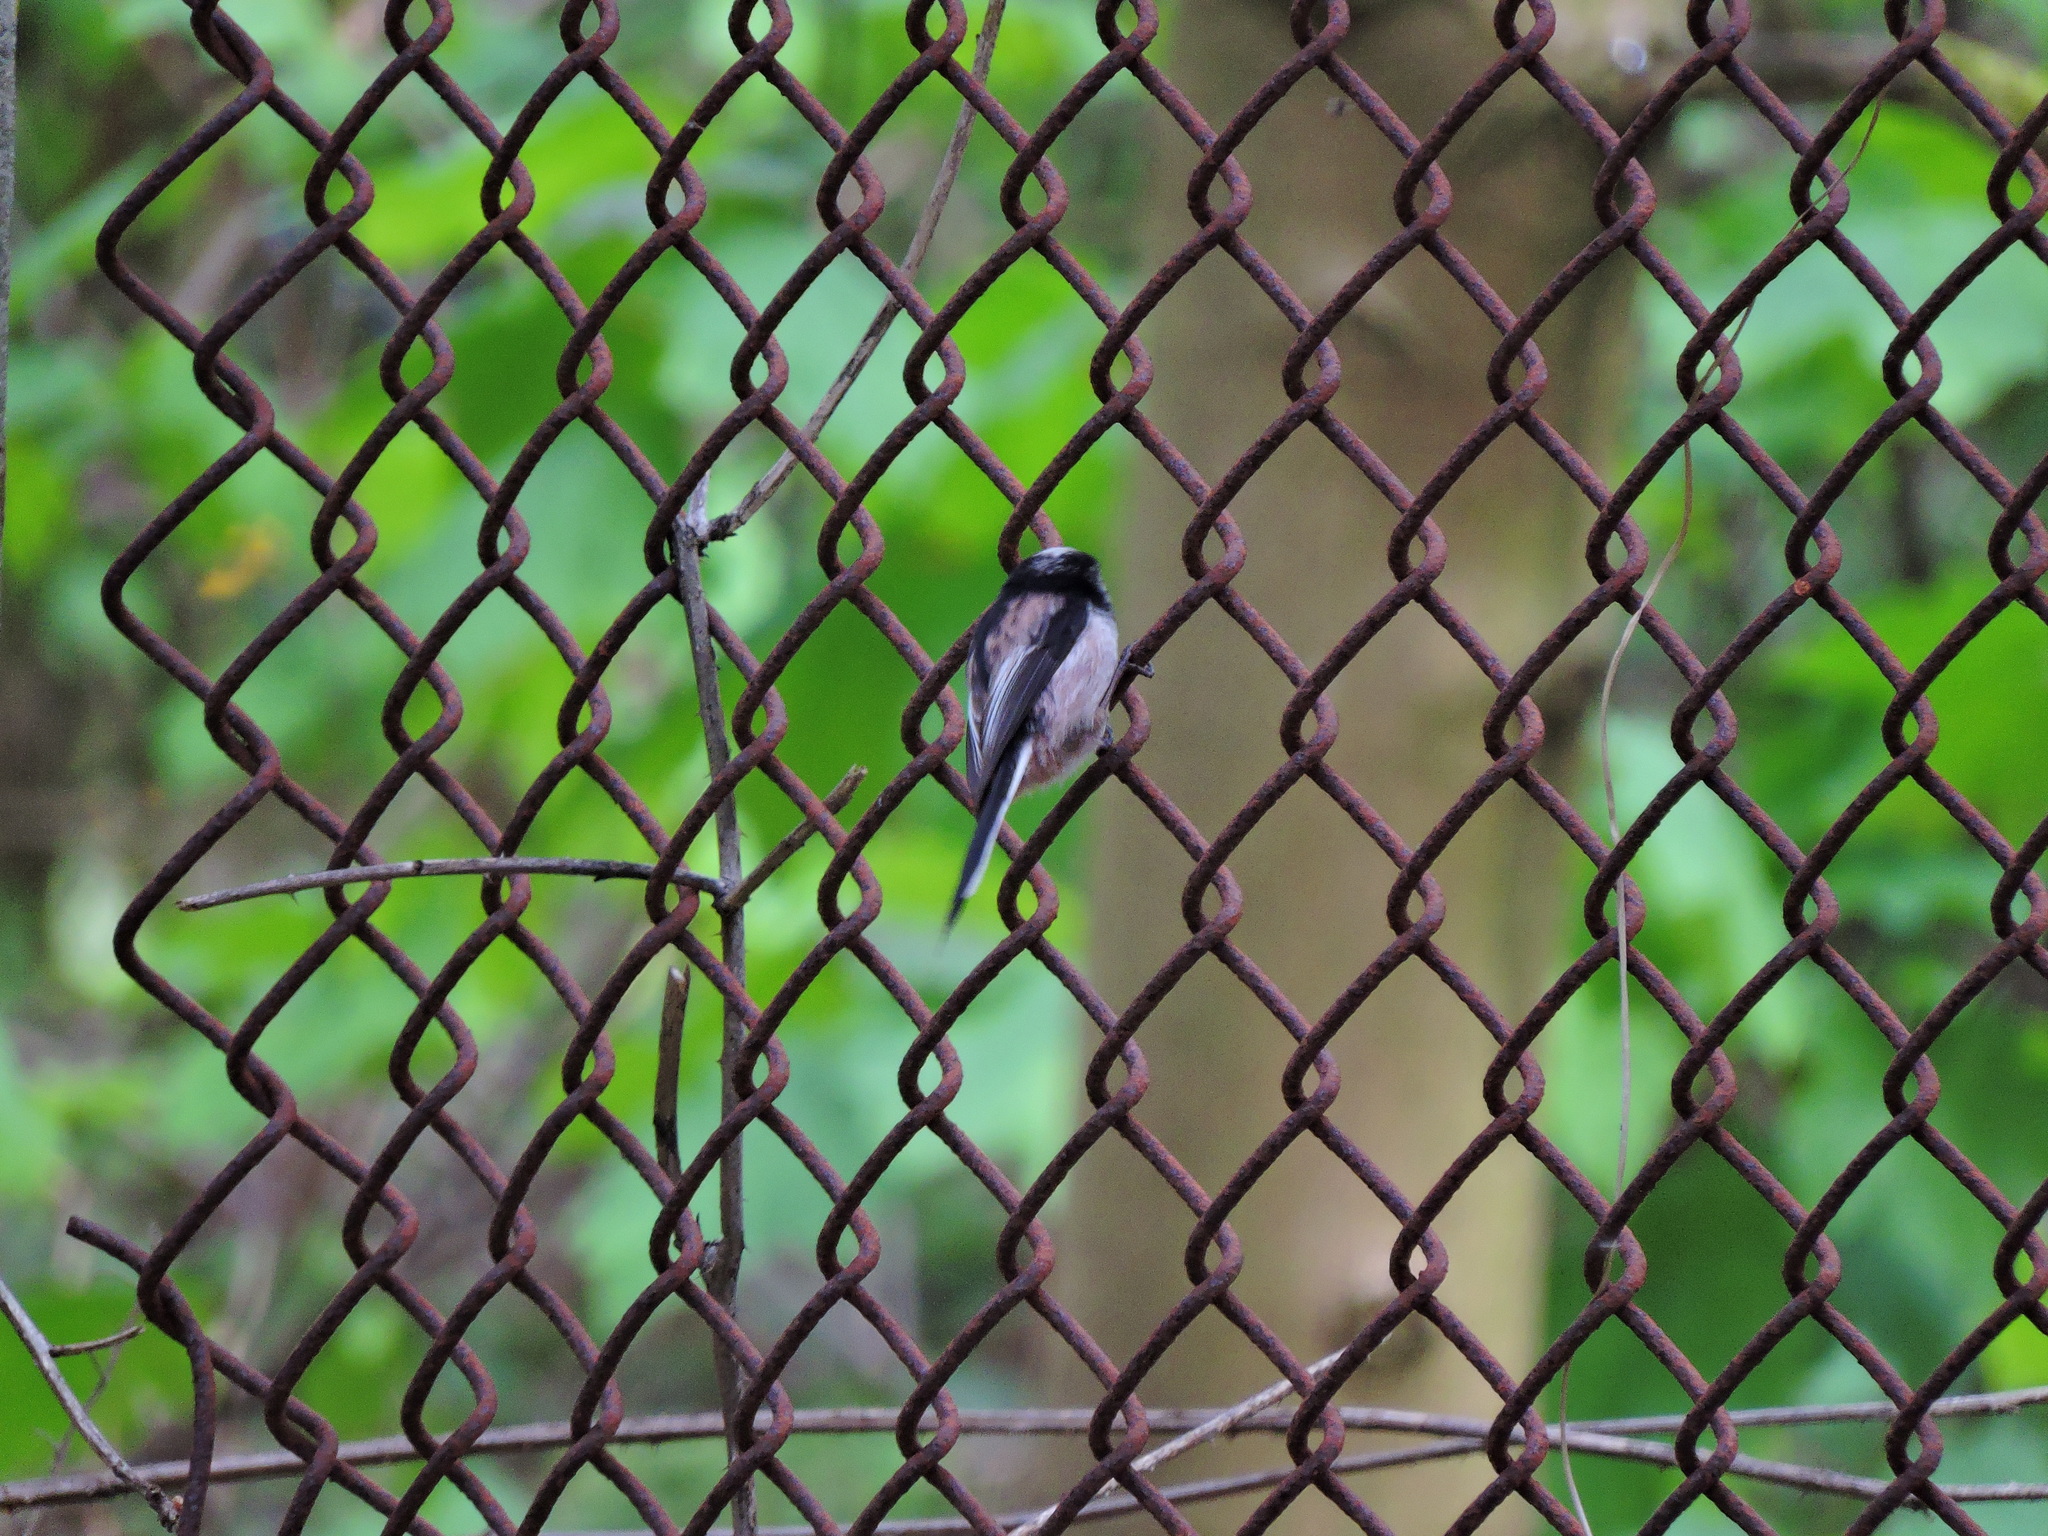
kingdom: Animalia
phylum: Chordata
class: Aves
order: Passeriformes
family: Aegithalidae
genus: Aegithalos
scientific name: Aegithalos caudatus
